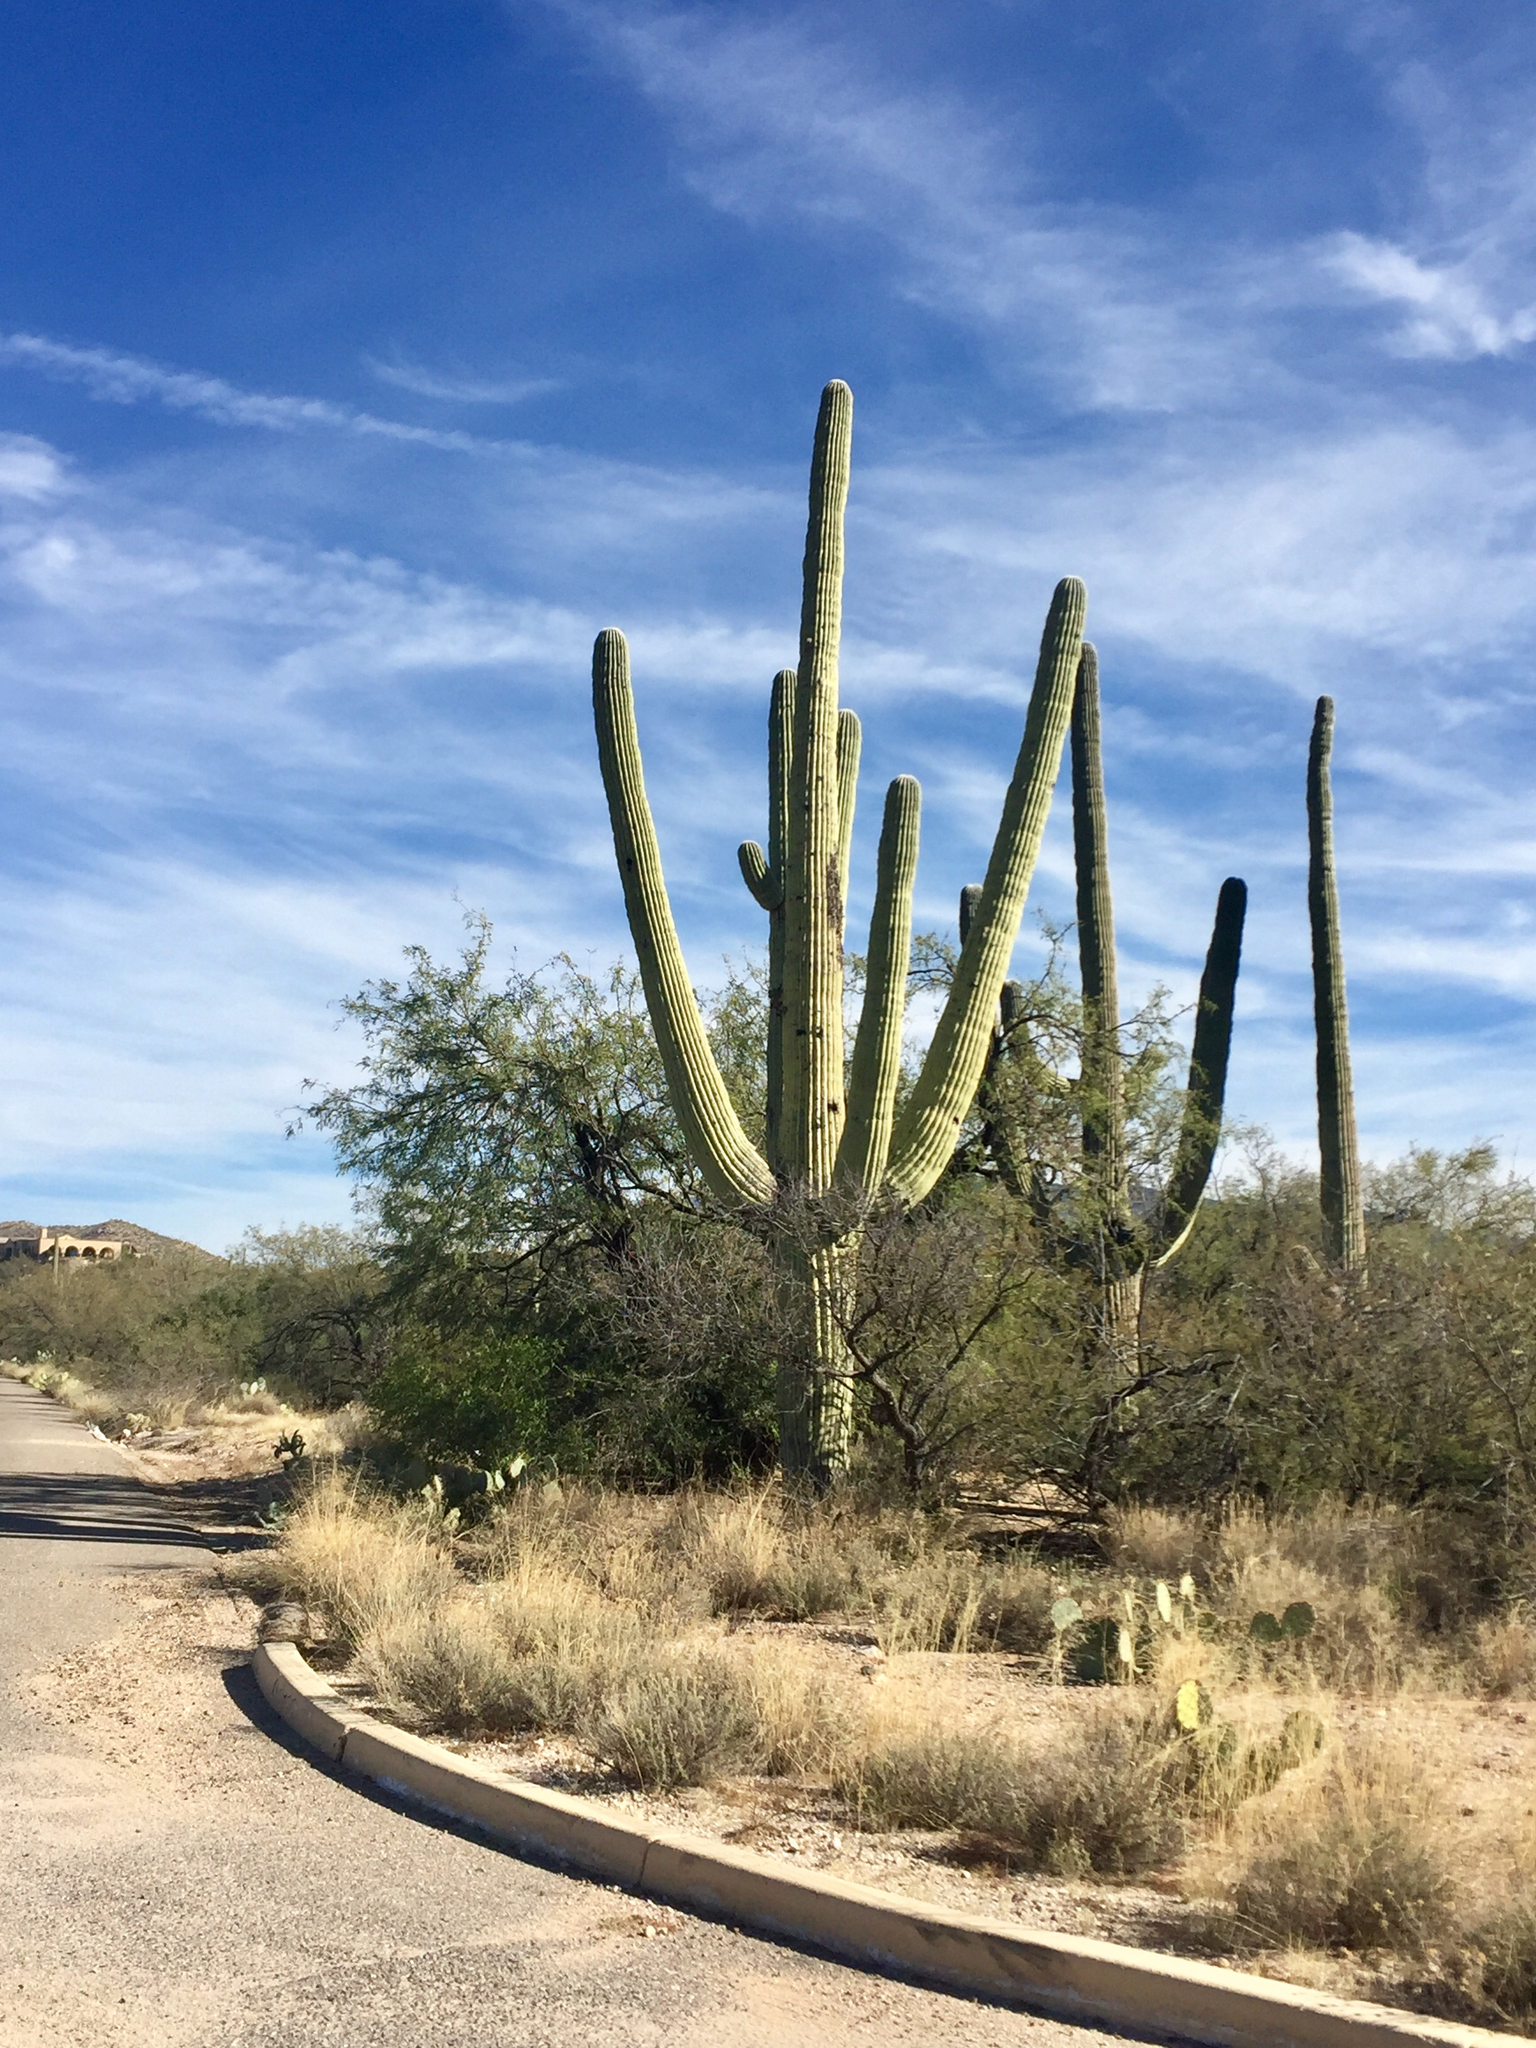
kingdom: Plantae
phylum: Tracheophyta
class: Magnoliopsida
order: Caryophyllales
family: Cactaceae
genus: Carnegiea
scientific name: Carnegiea gigantea
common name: Saguaro
